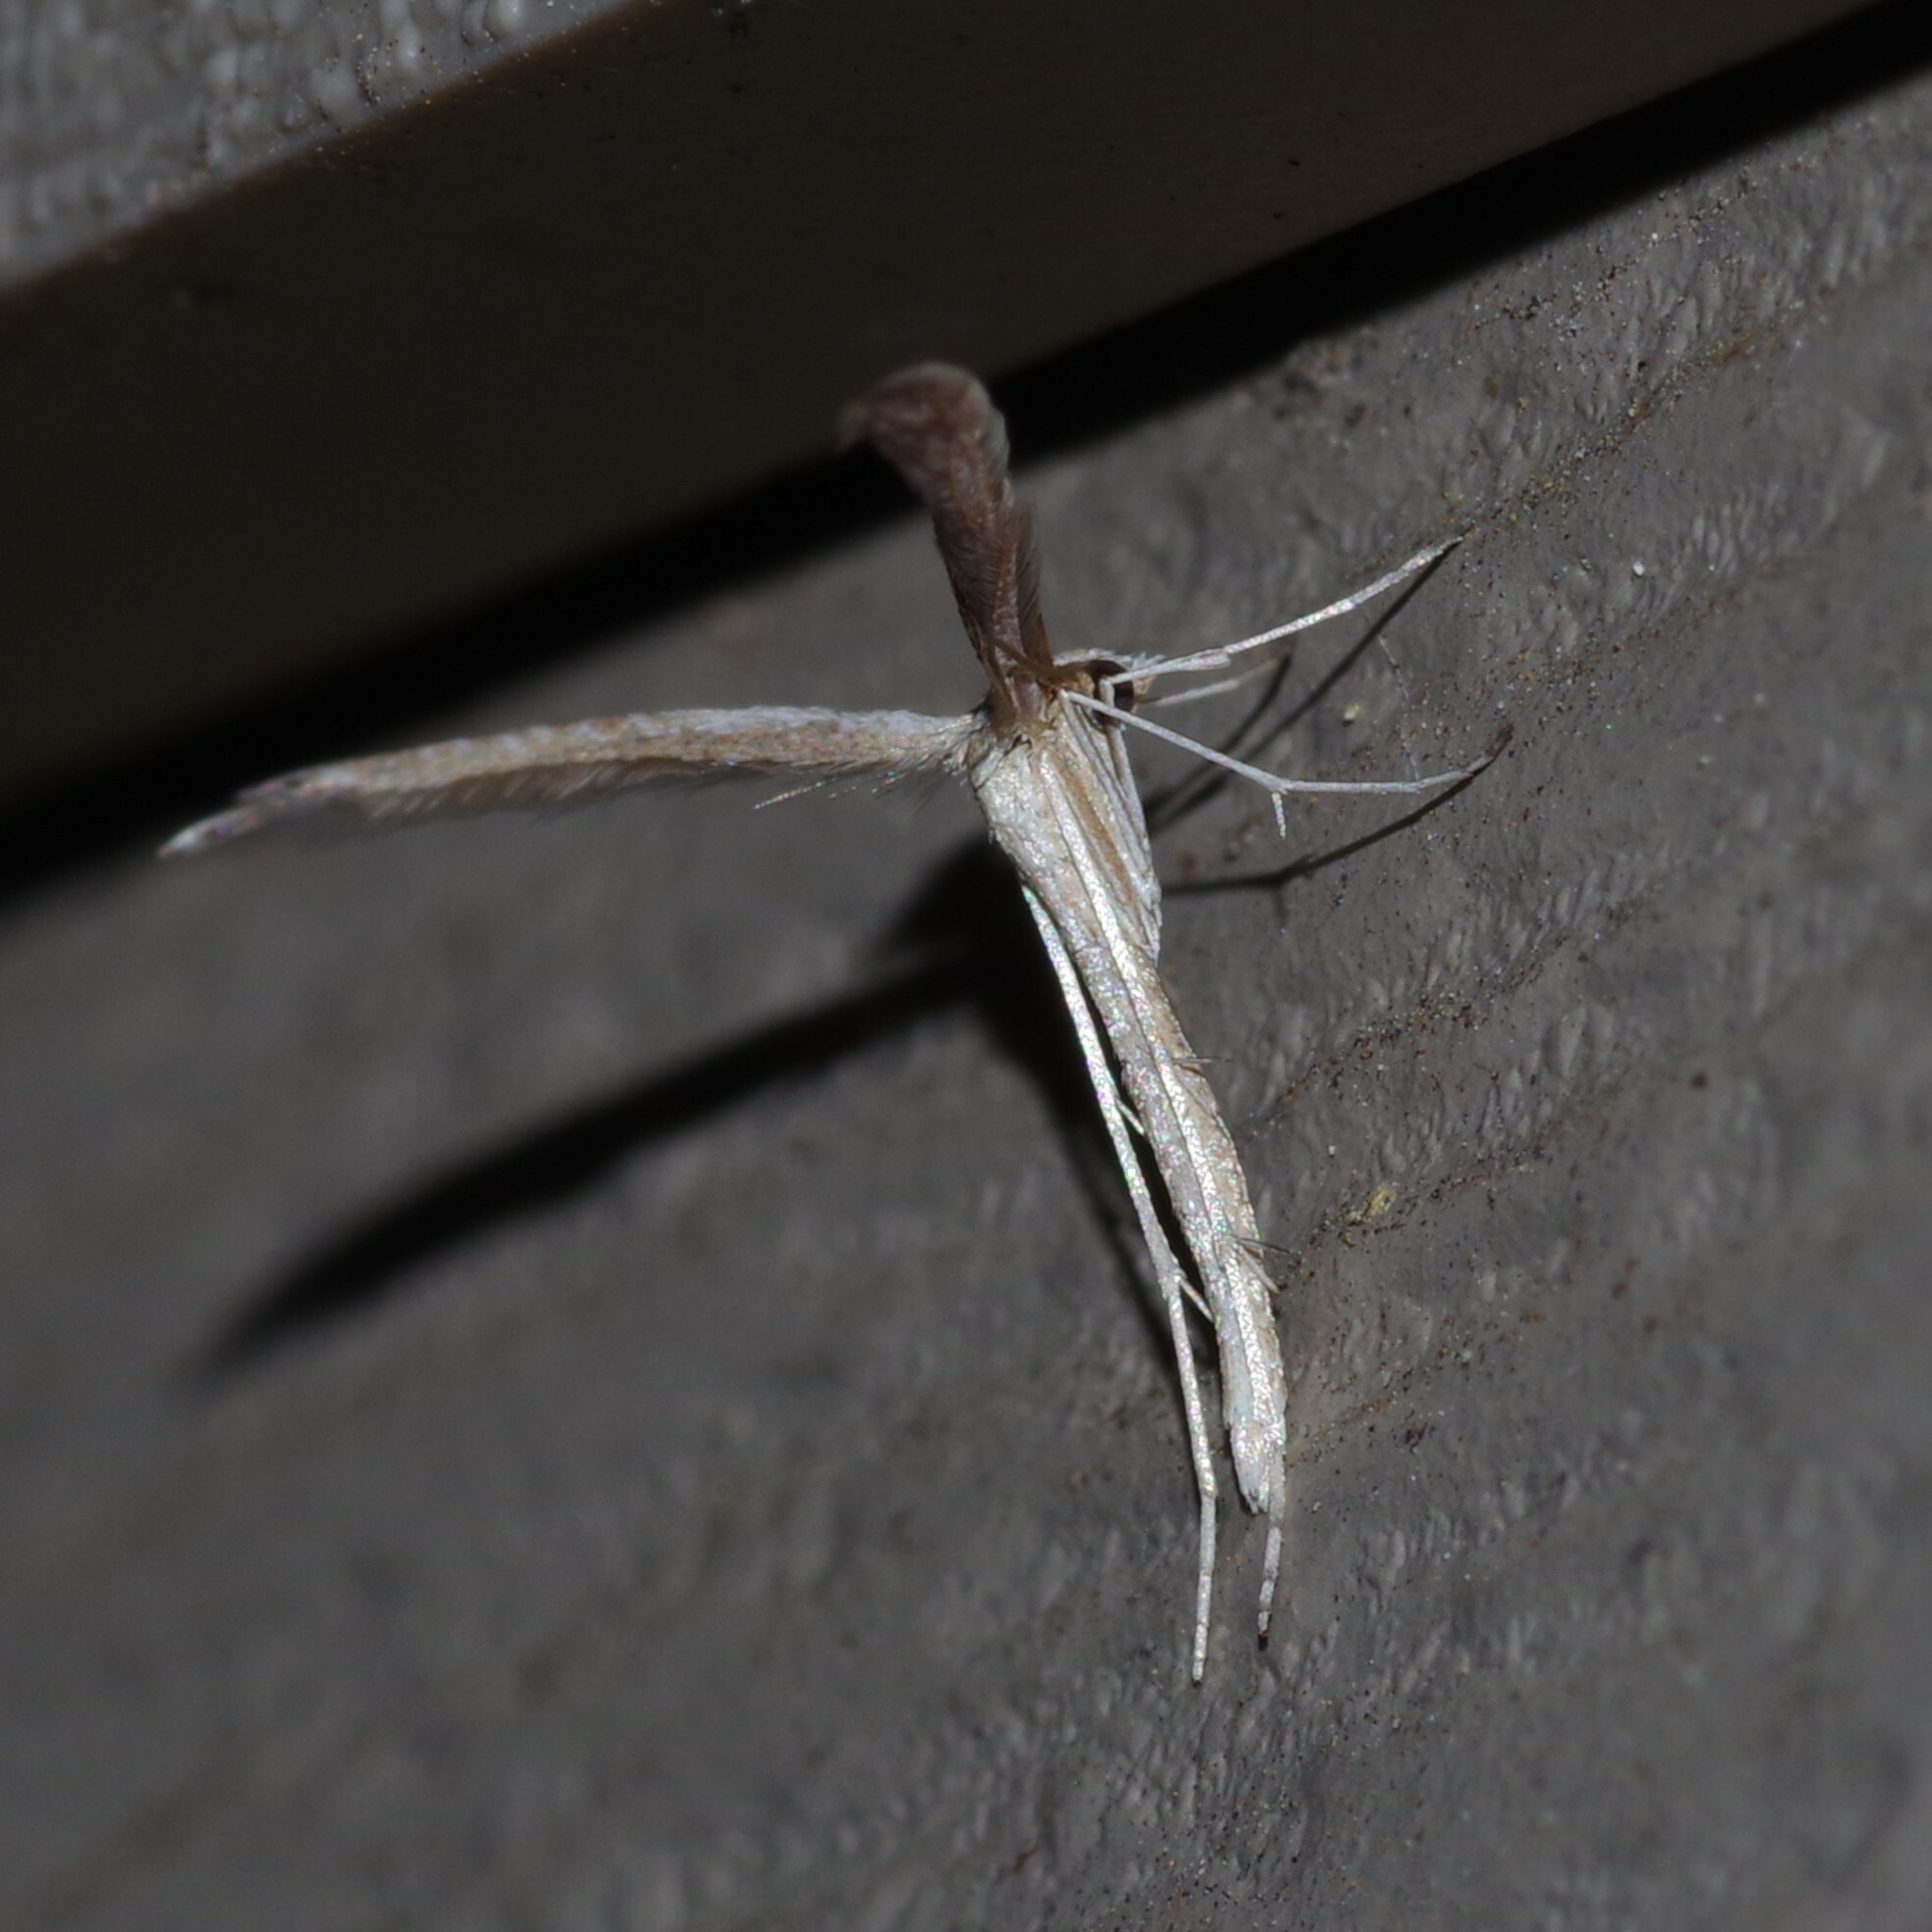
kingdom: Animalia
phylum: Arthropoda
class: Insecta
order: Lepidoptera
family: Pterophoridae
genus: Lioptilodes
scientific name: Lioptilodes albistriolatus
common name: Moth
